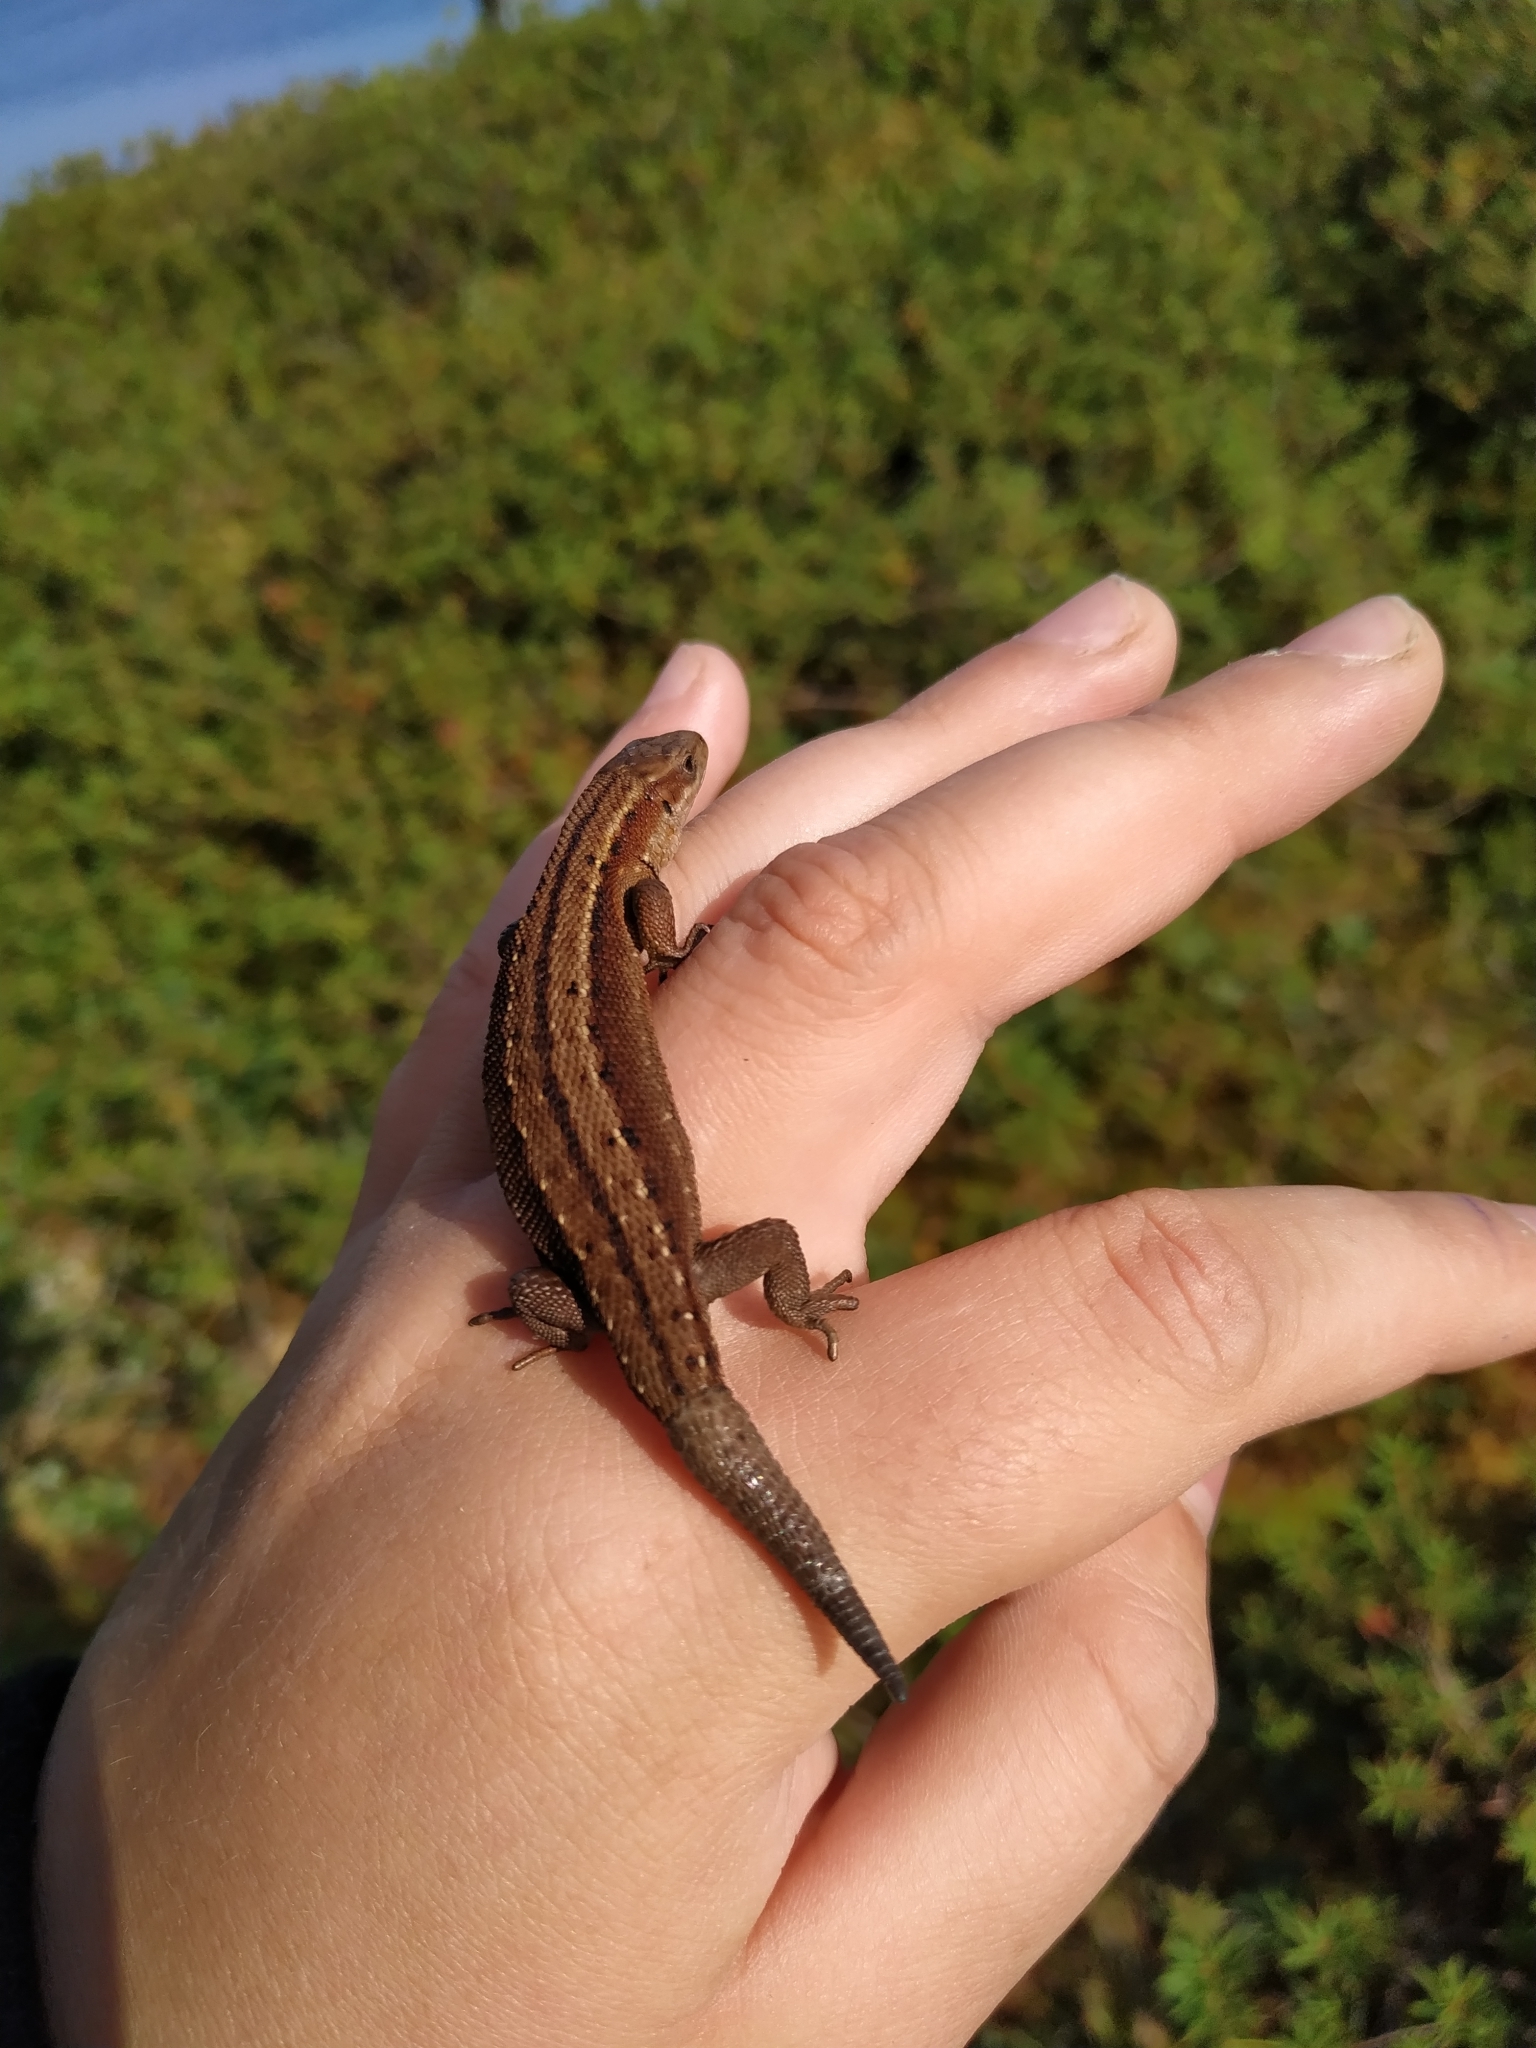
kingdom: Animalia
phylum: Chordata
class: Squamata
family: Lacertidae
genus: Zootoca
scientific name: Zootoca vivipara
